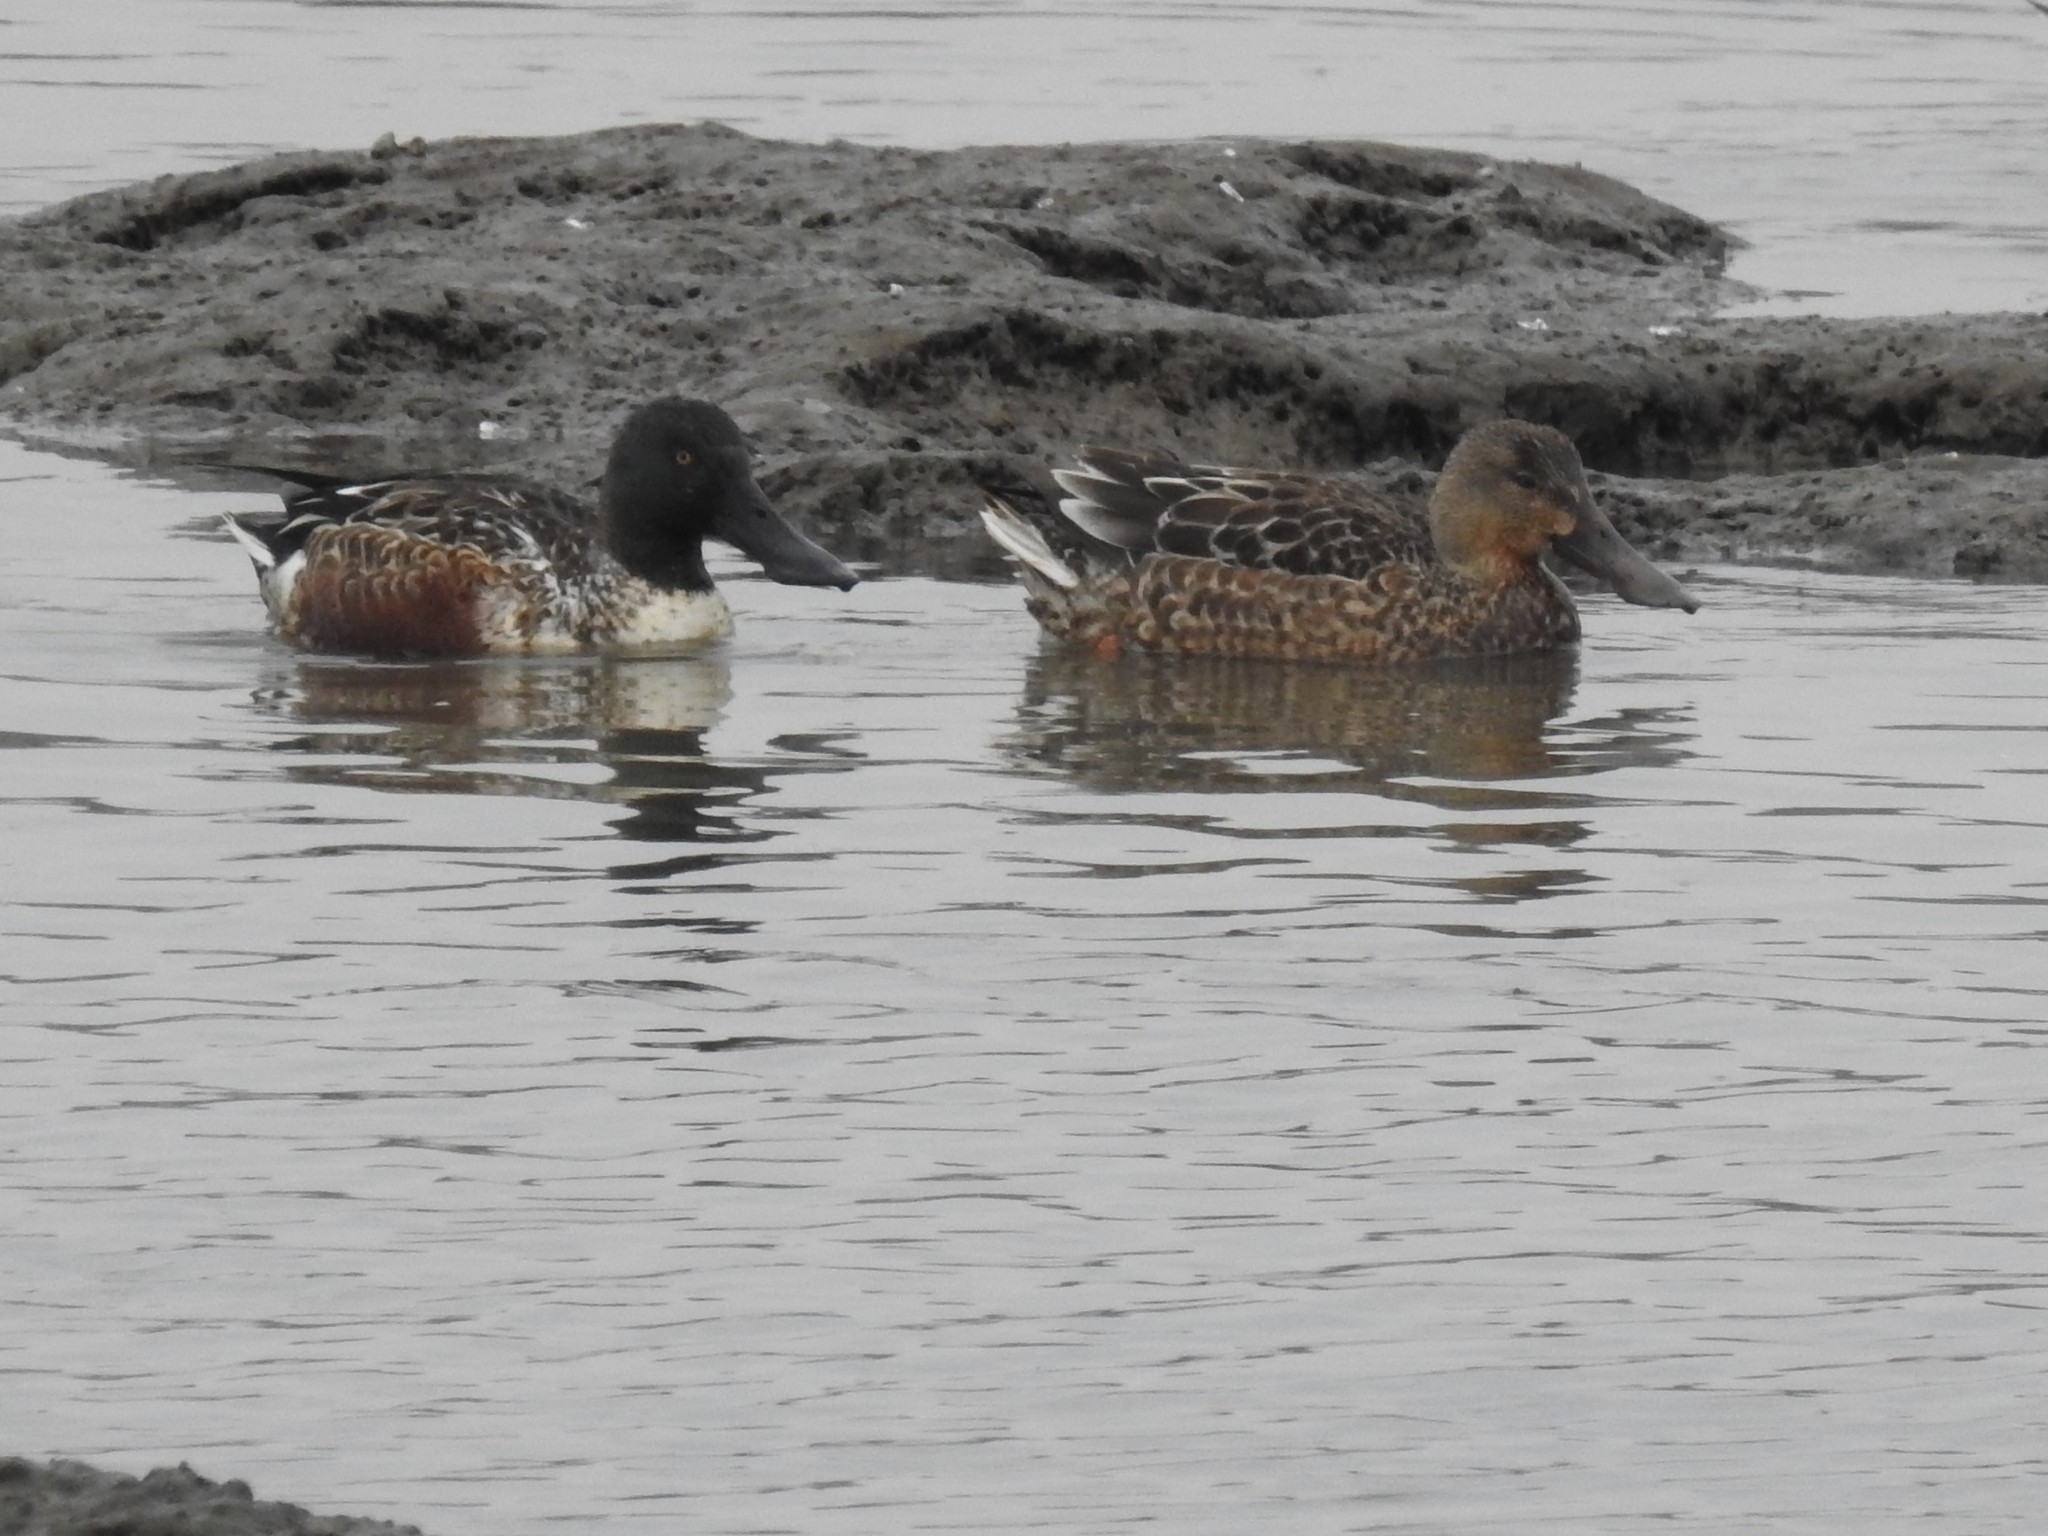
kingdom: Animalia
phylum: Chordata
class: Aves
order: Anseriformes
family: Anatidae
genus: Spatula
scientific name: Spatula clypeata
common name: Northern shoveler
